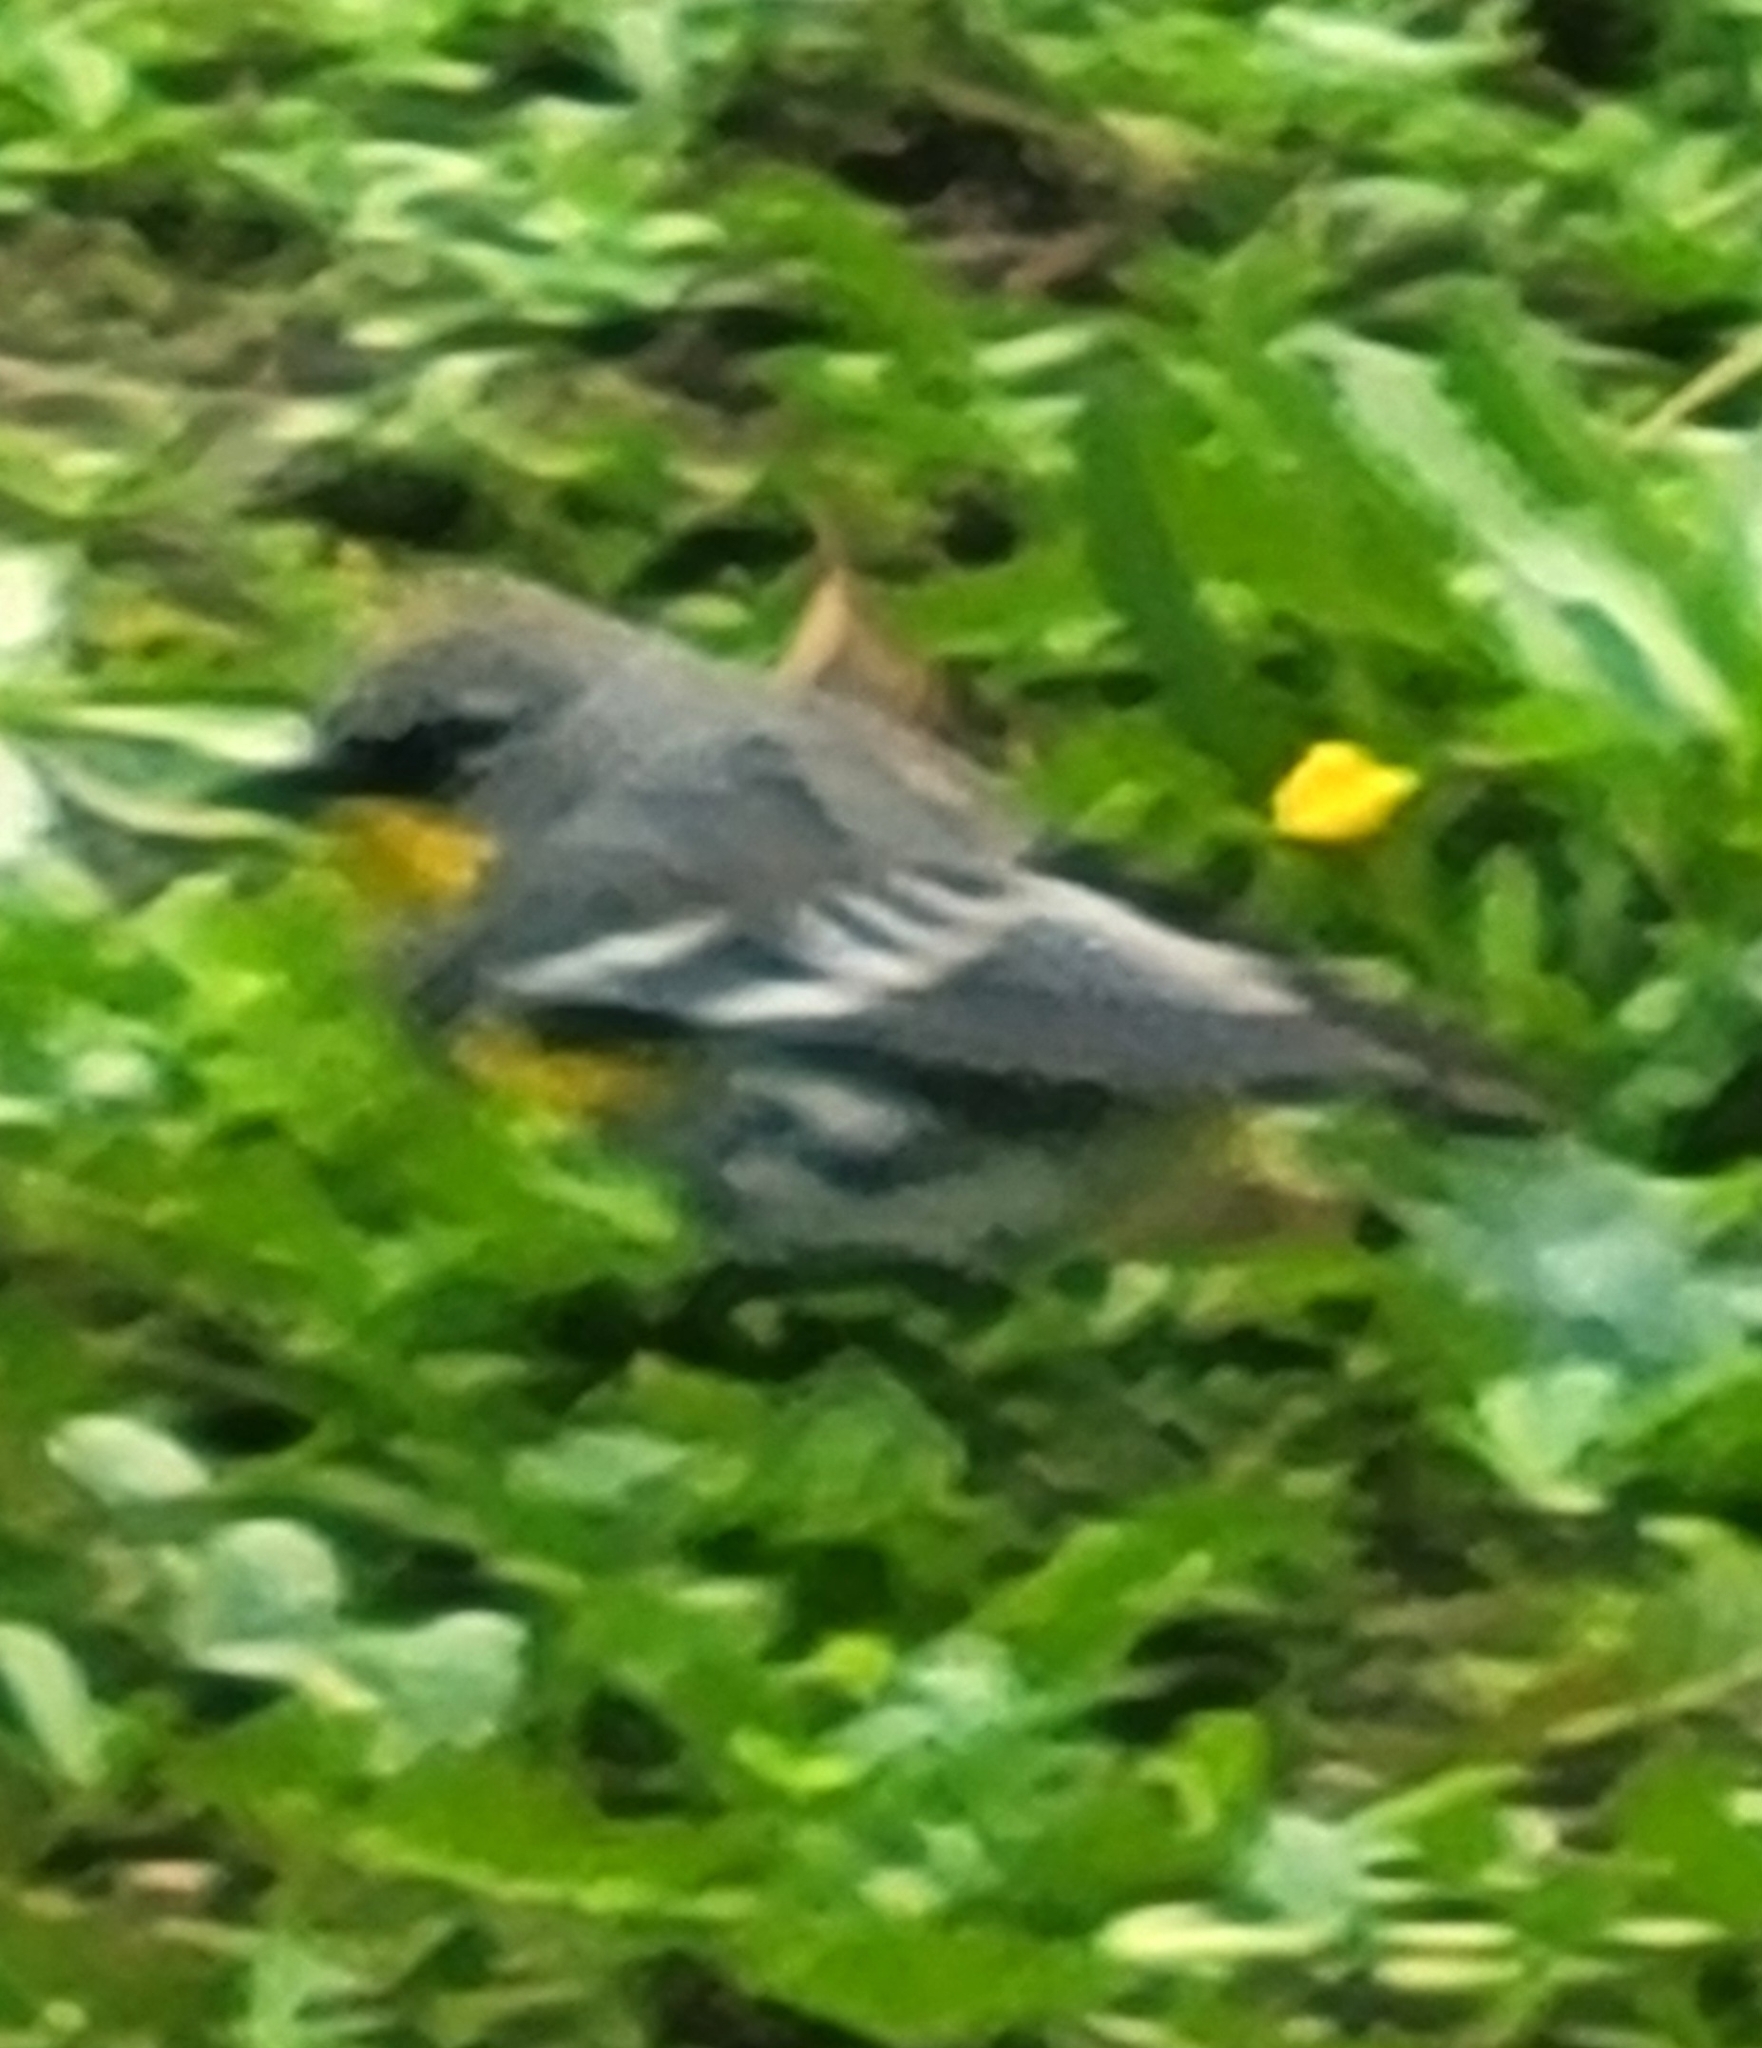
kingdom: Animalia
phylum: Chordata
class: Aves
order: Passeriformes
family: Parulidae
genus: Setophaga
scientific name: Setophaga coronata
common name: Myrtle warbler
